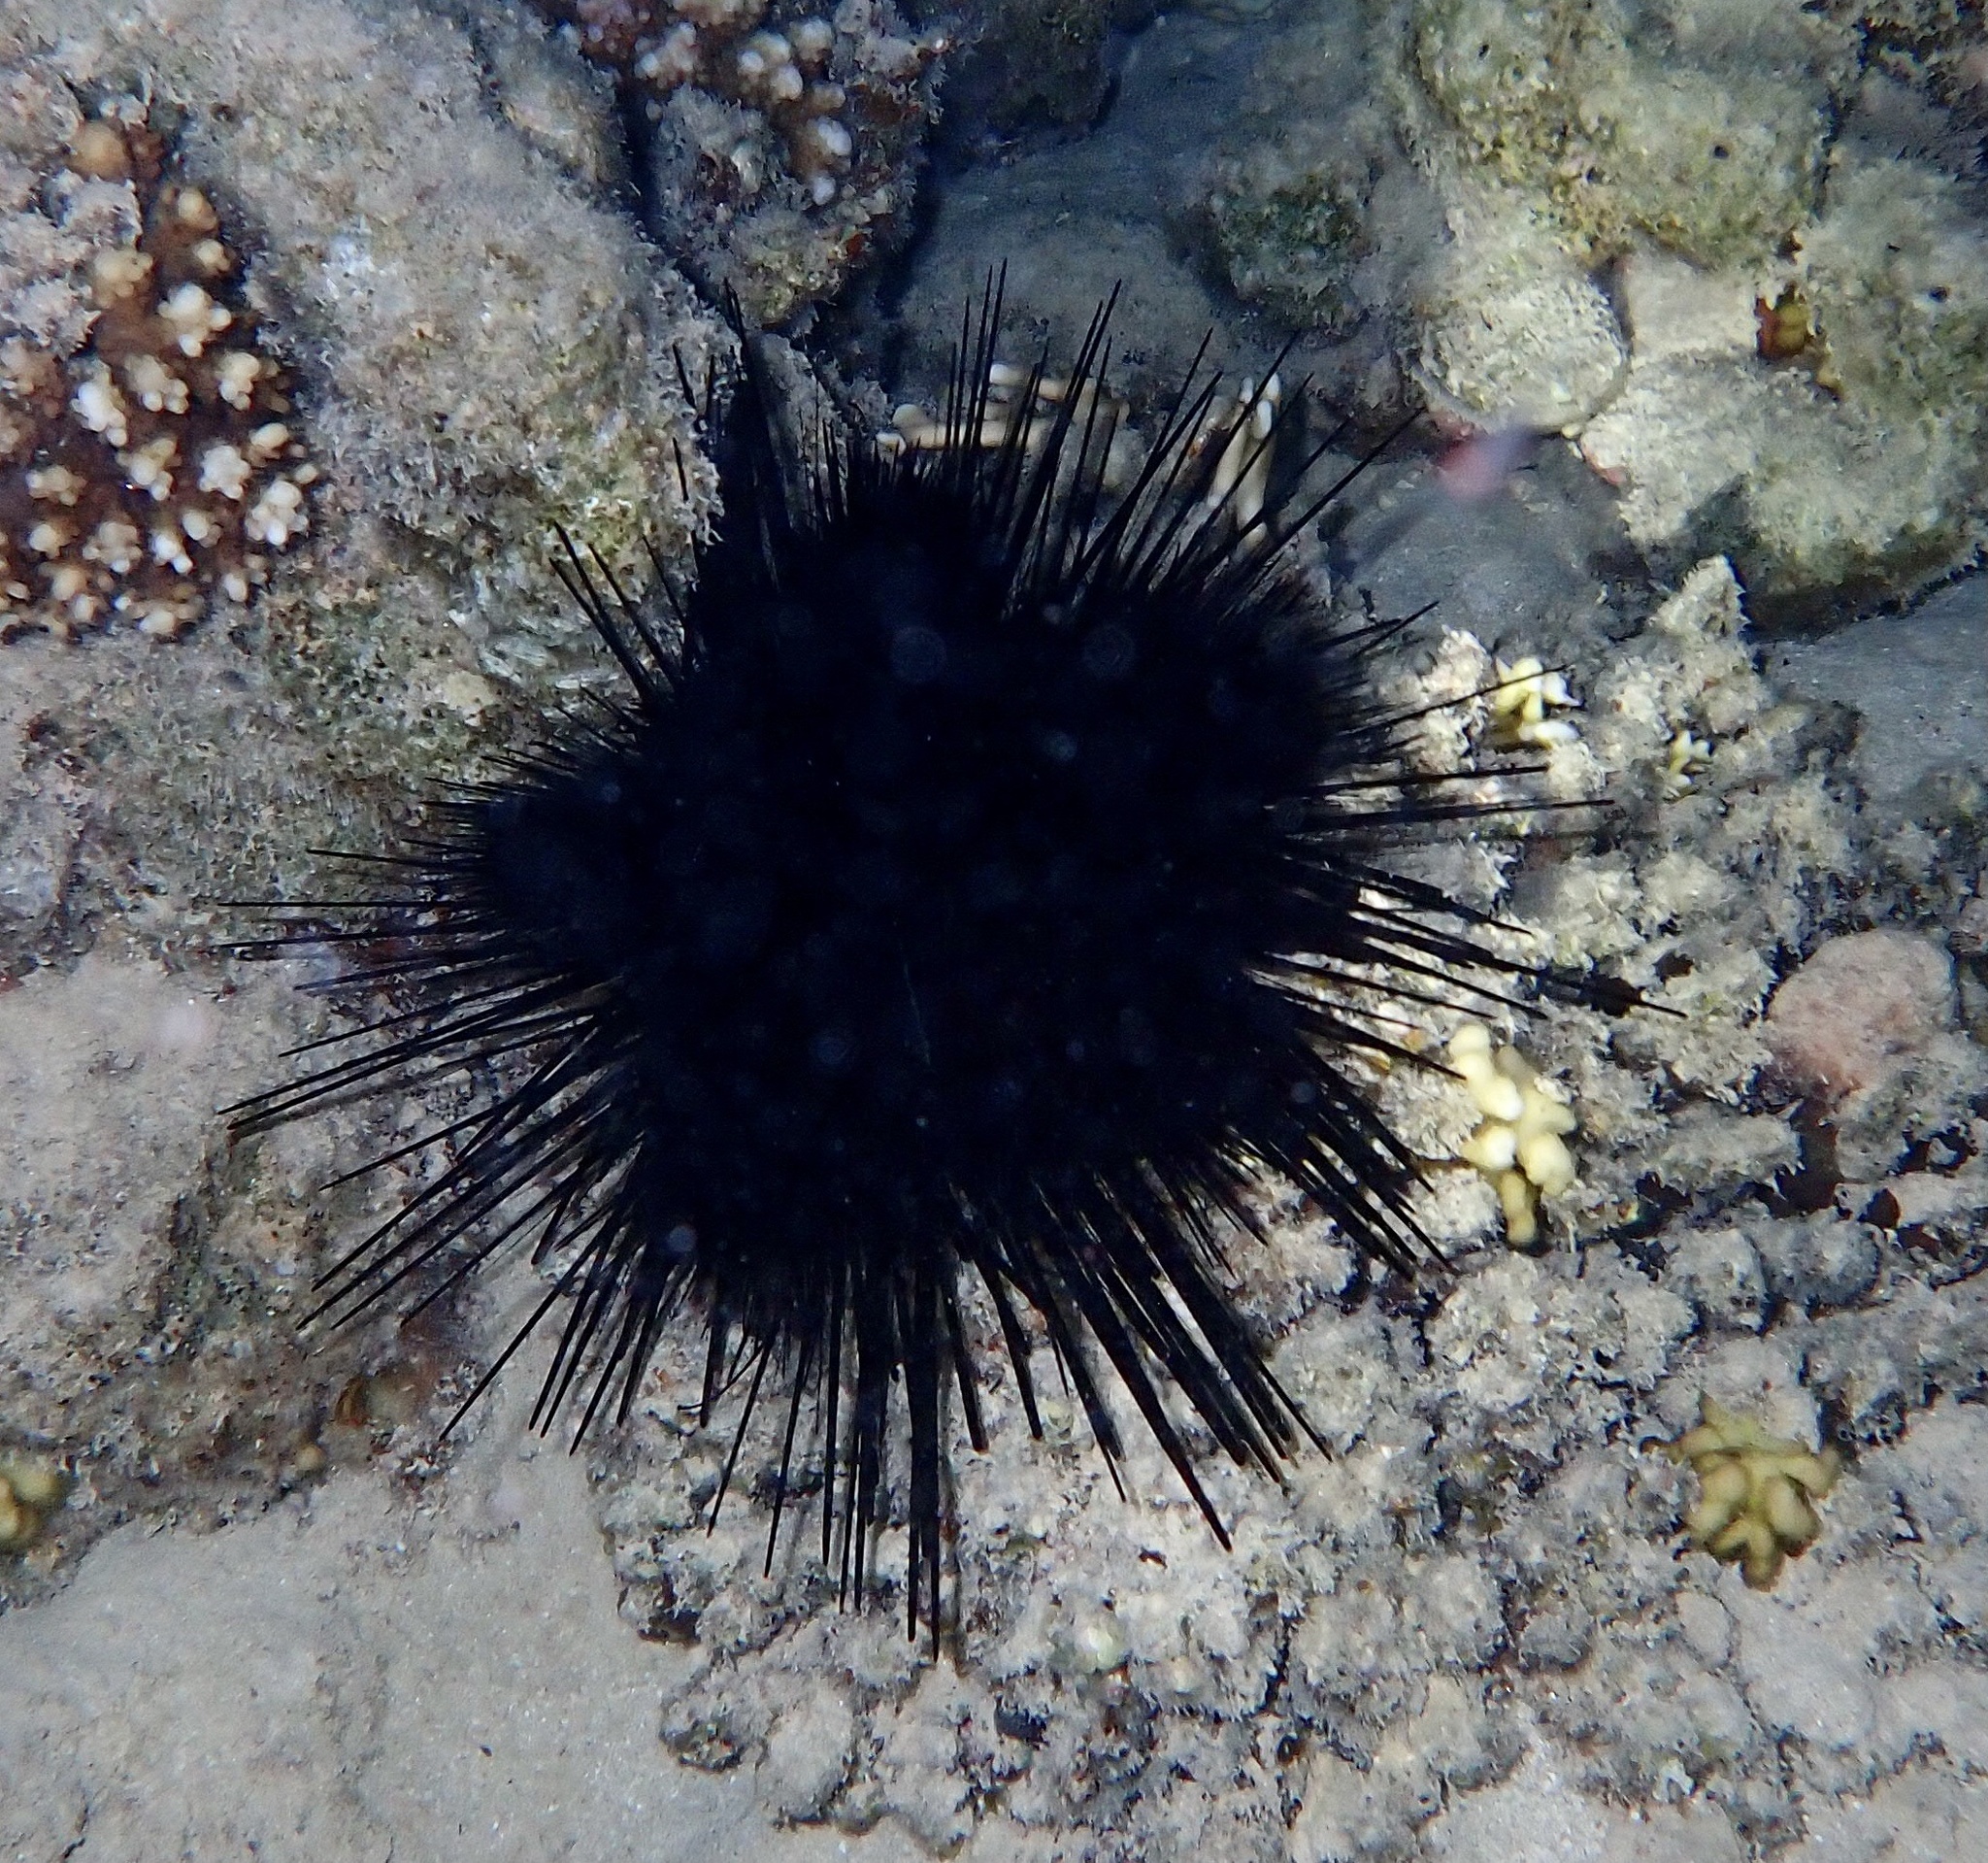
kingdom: Animalia
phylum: Echinodermata
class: Echinoidea
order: Diadematoida
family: Diadematidae
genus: Echinothrix
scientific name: Echinothrix calamaris
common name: Banded sea urchin
